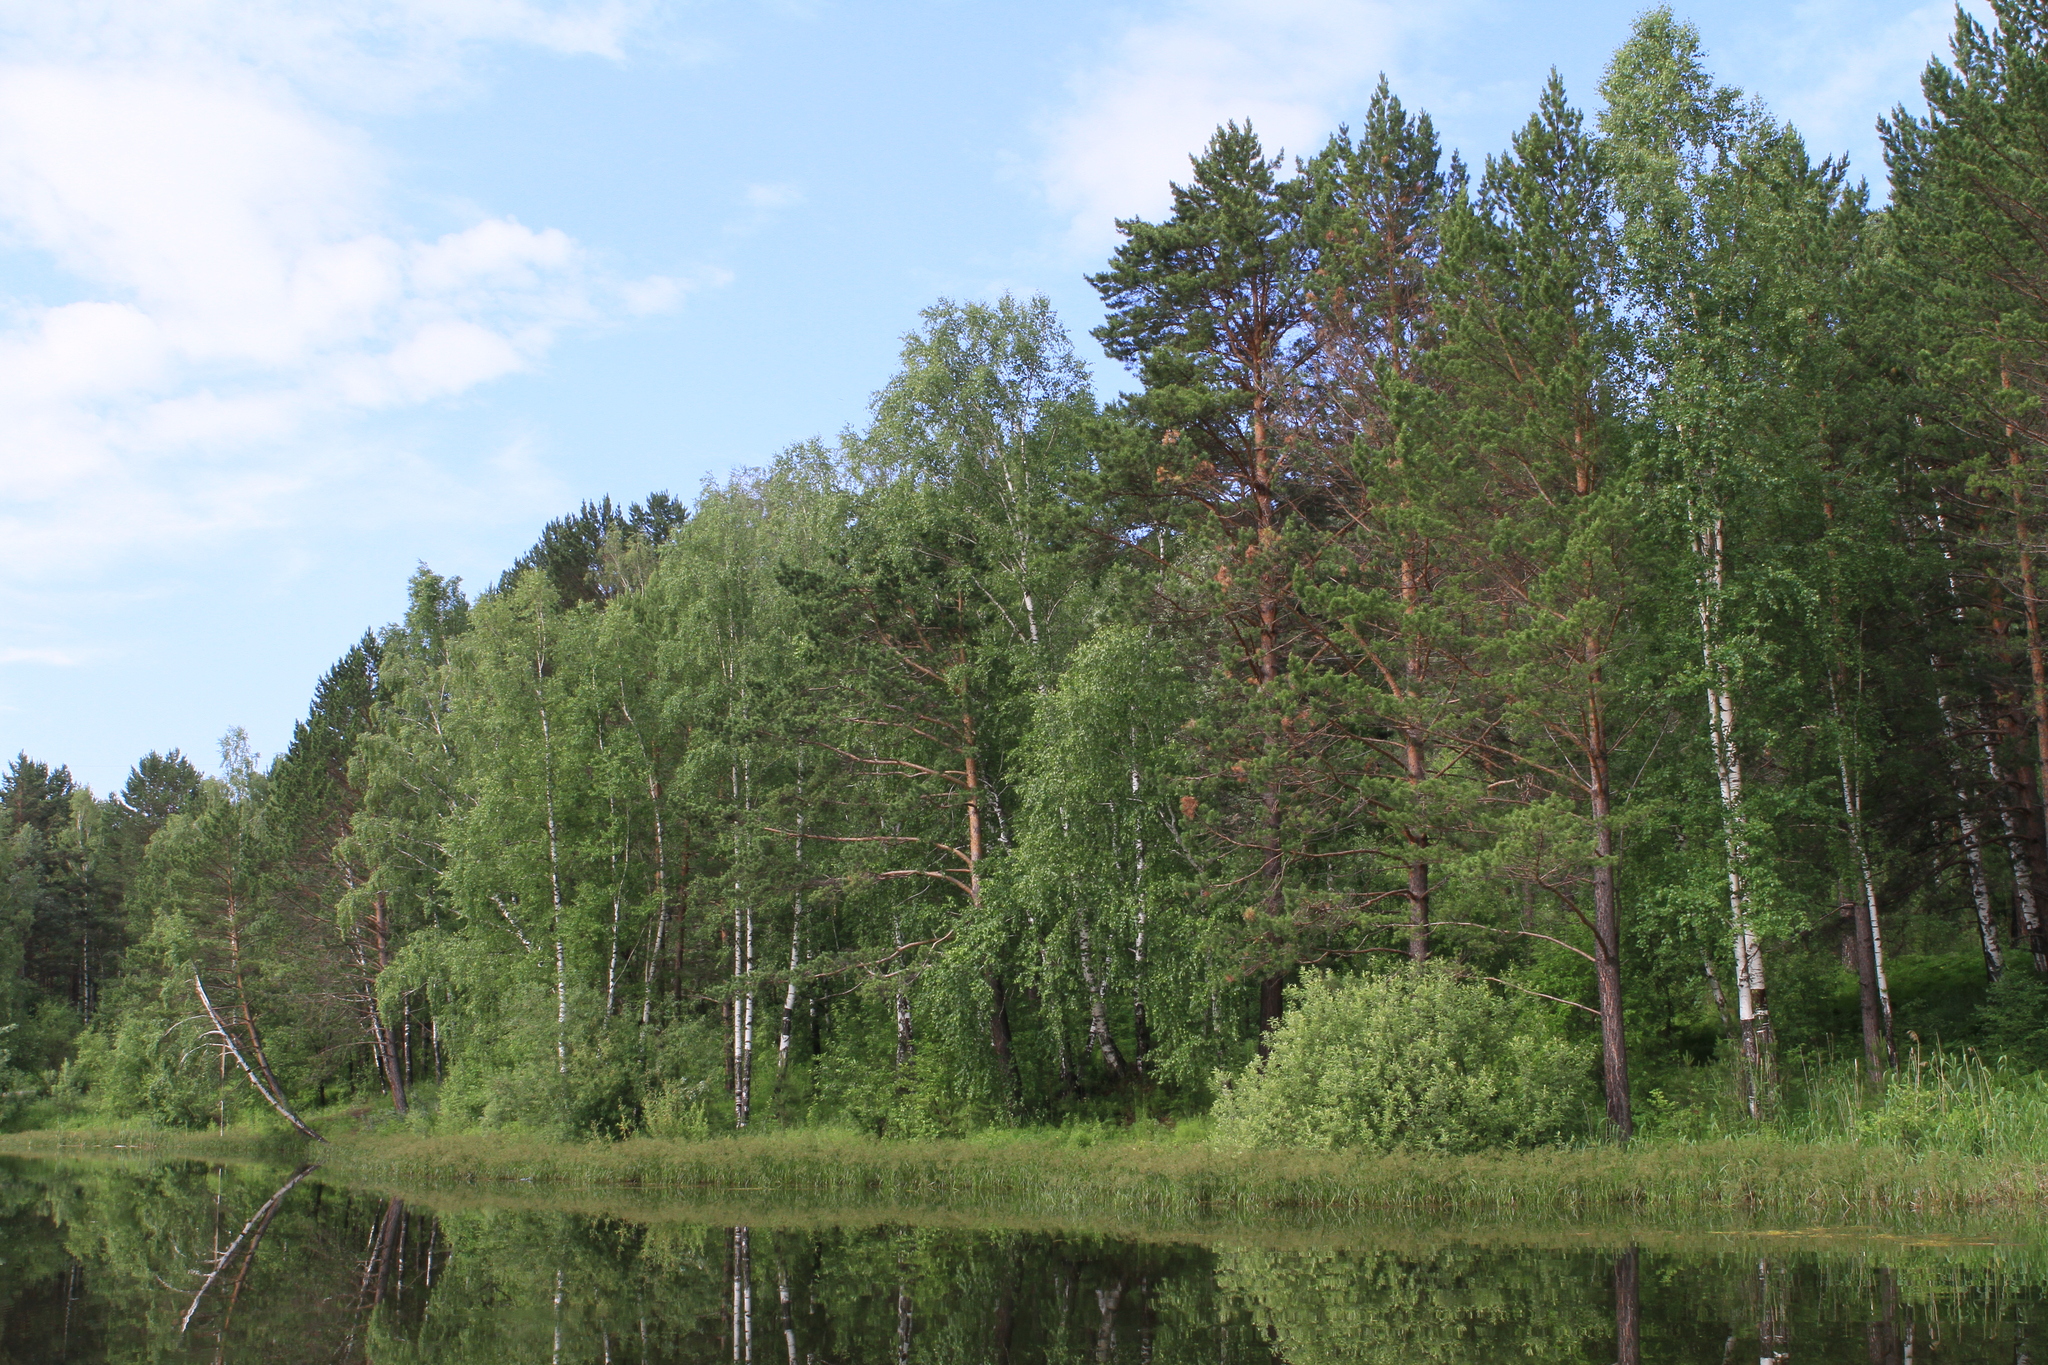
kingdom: Plantae
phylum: Tracheophyta
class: Pinopsida
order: Pinales
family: Pinaceae
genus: Pinus
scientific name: Pinus sylvestris
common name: Scots pine
